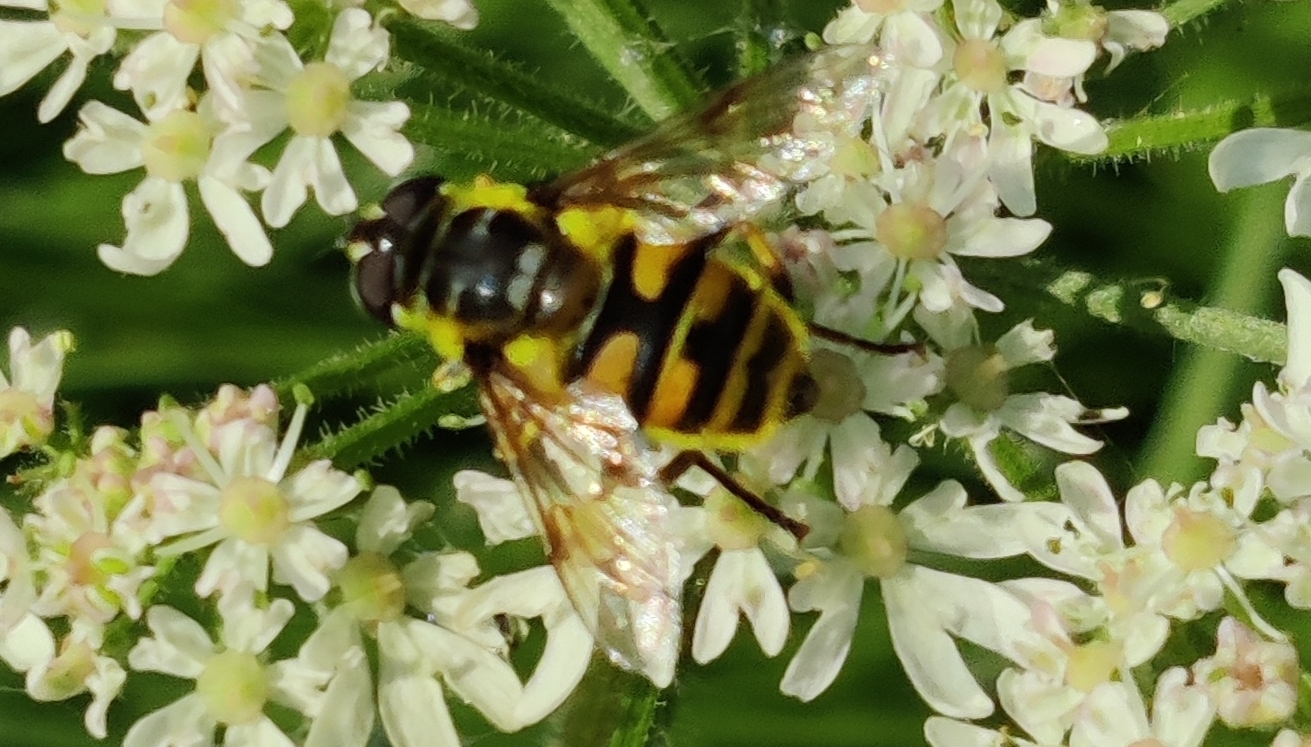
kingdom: Animalia
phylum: Arthropoda
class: Insecta
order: Diptera
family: Syrphidae
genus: Myathropa
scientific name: Myathropa florea
